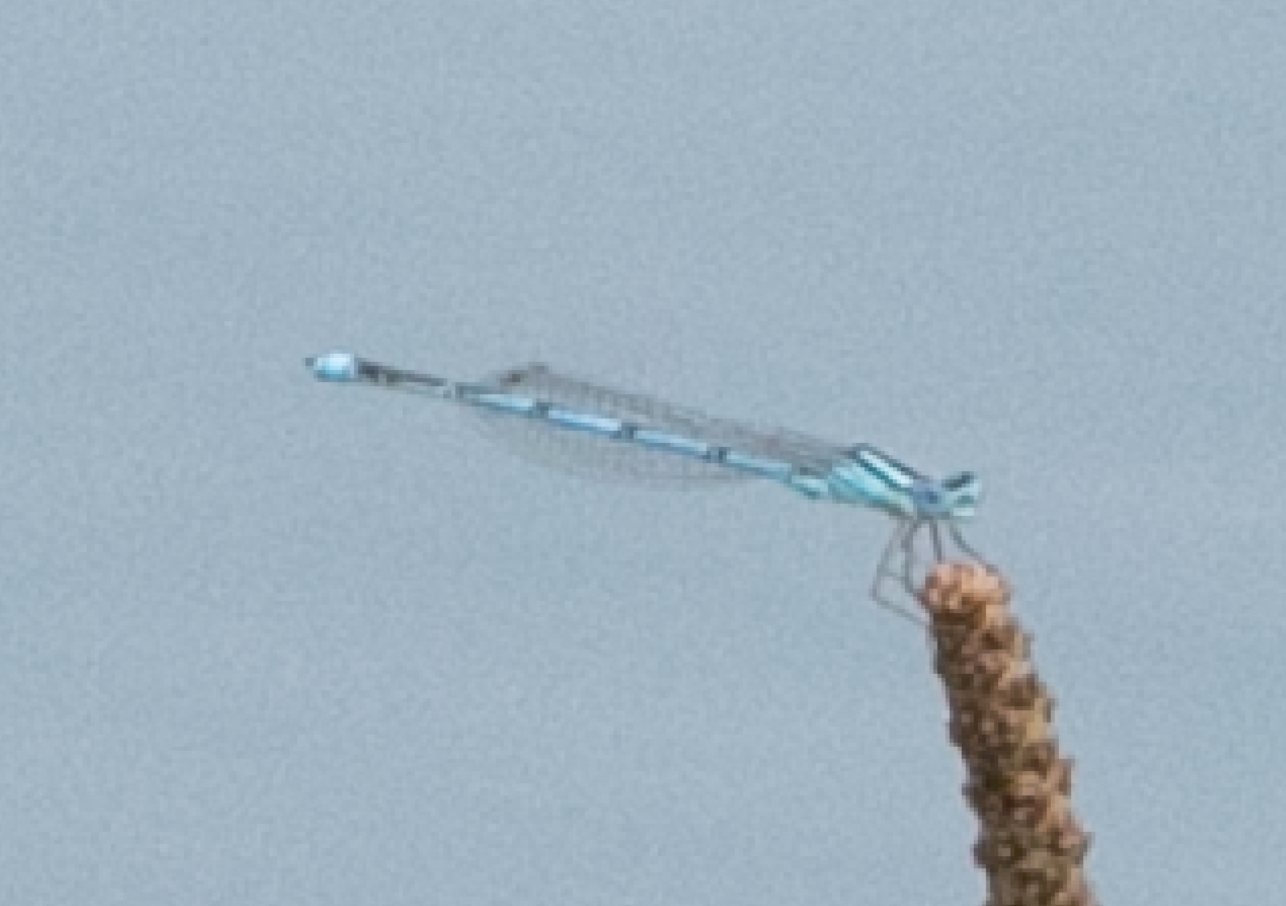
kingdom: Animalia
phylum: Arthropoda
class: Insecta
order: Odonata
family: Coenagrionidae
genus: Erythromma
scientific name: Erythromma lindenii
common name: Blue-eye
